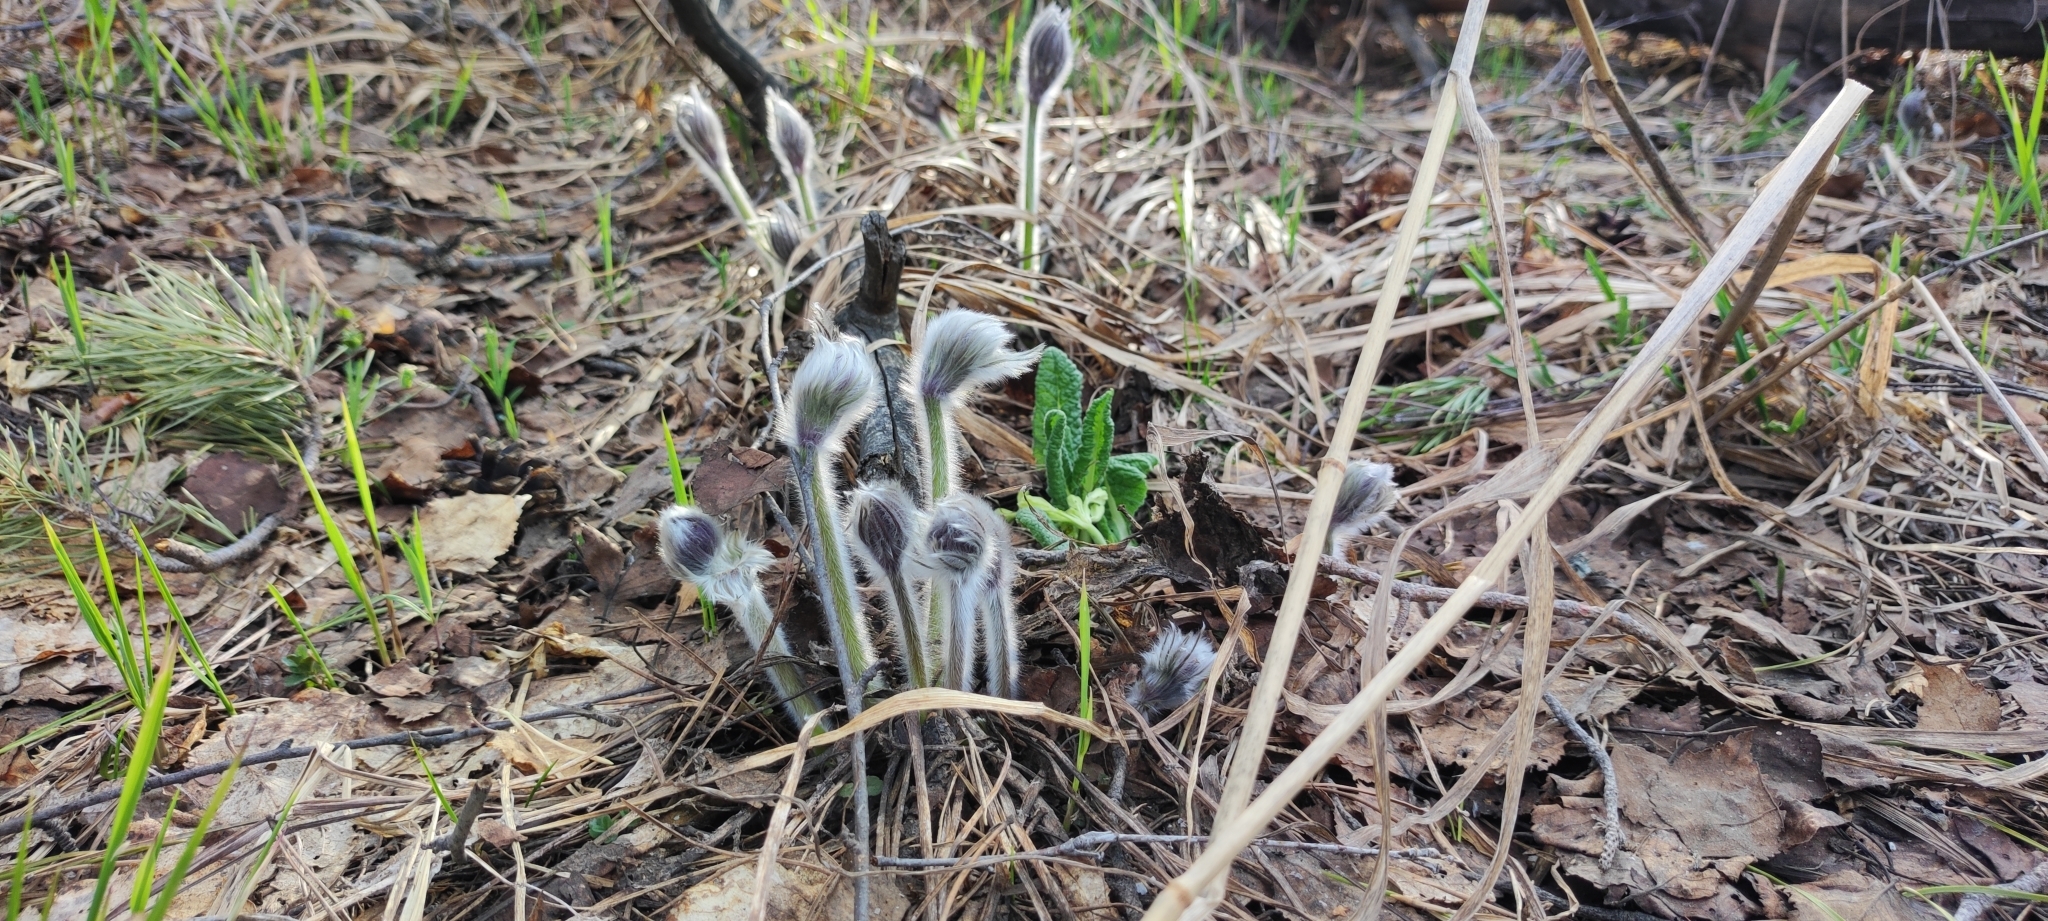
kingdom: Plantae
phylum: Tracheophyta
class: Magnoliopsida
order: Ranunculales
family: Ranunculaceae
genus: Pulsatilla
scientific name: Pulsatilla patens
